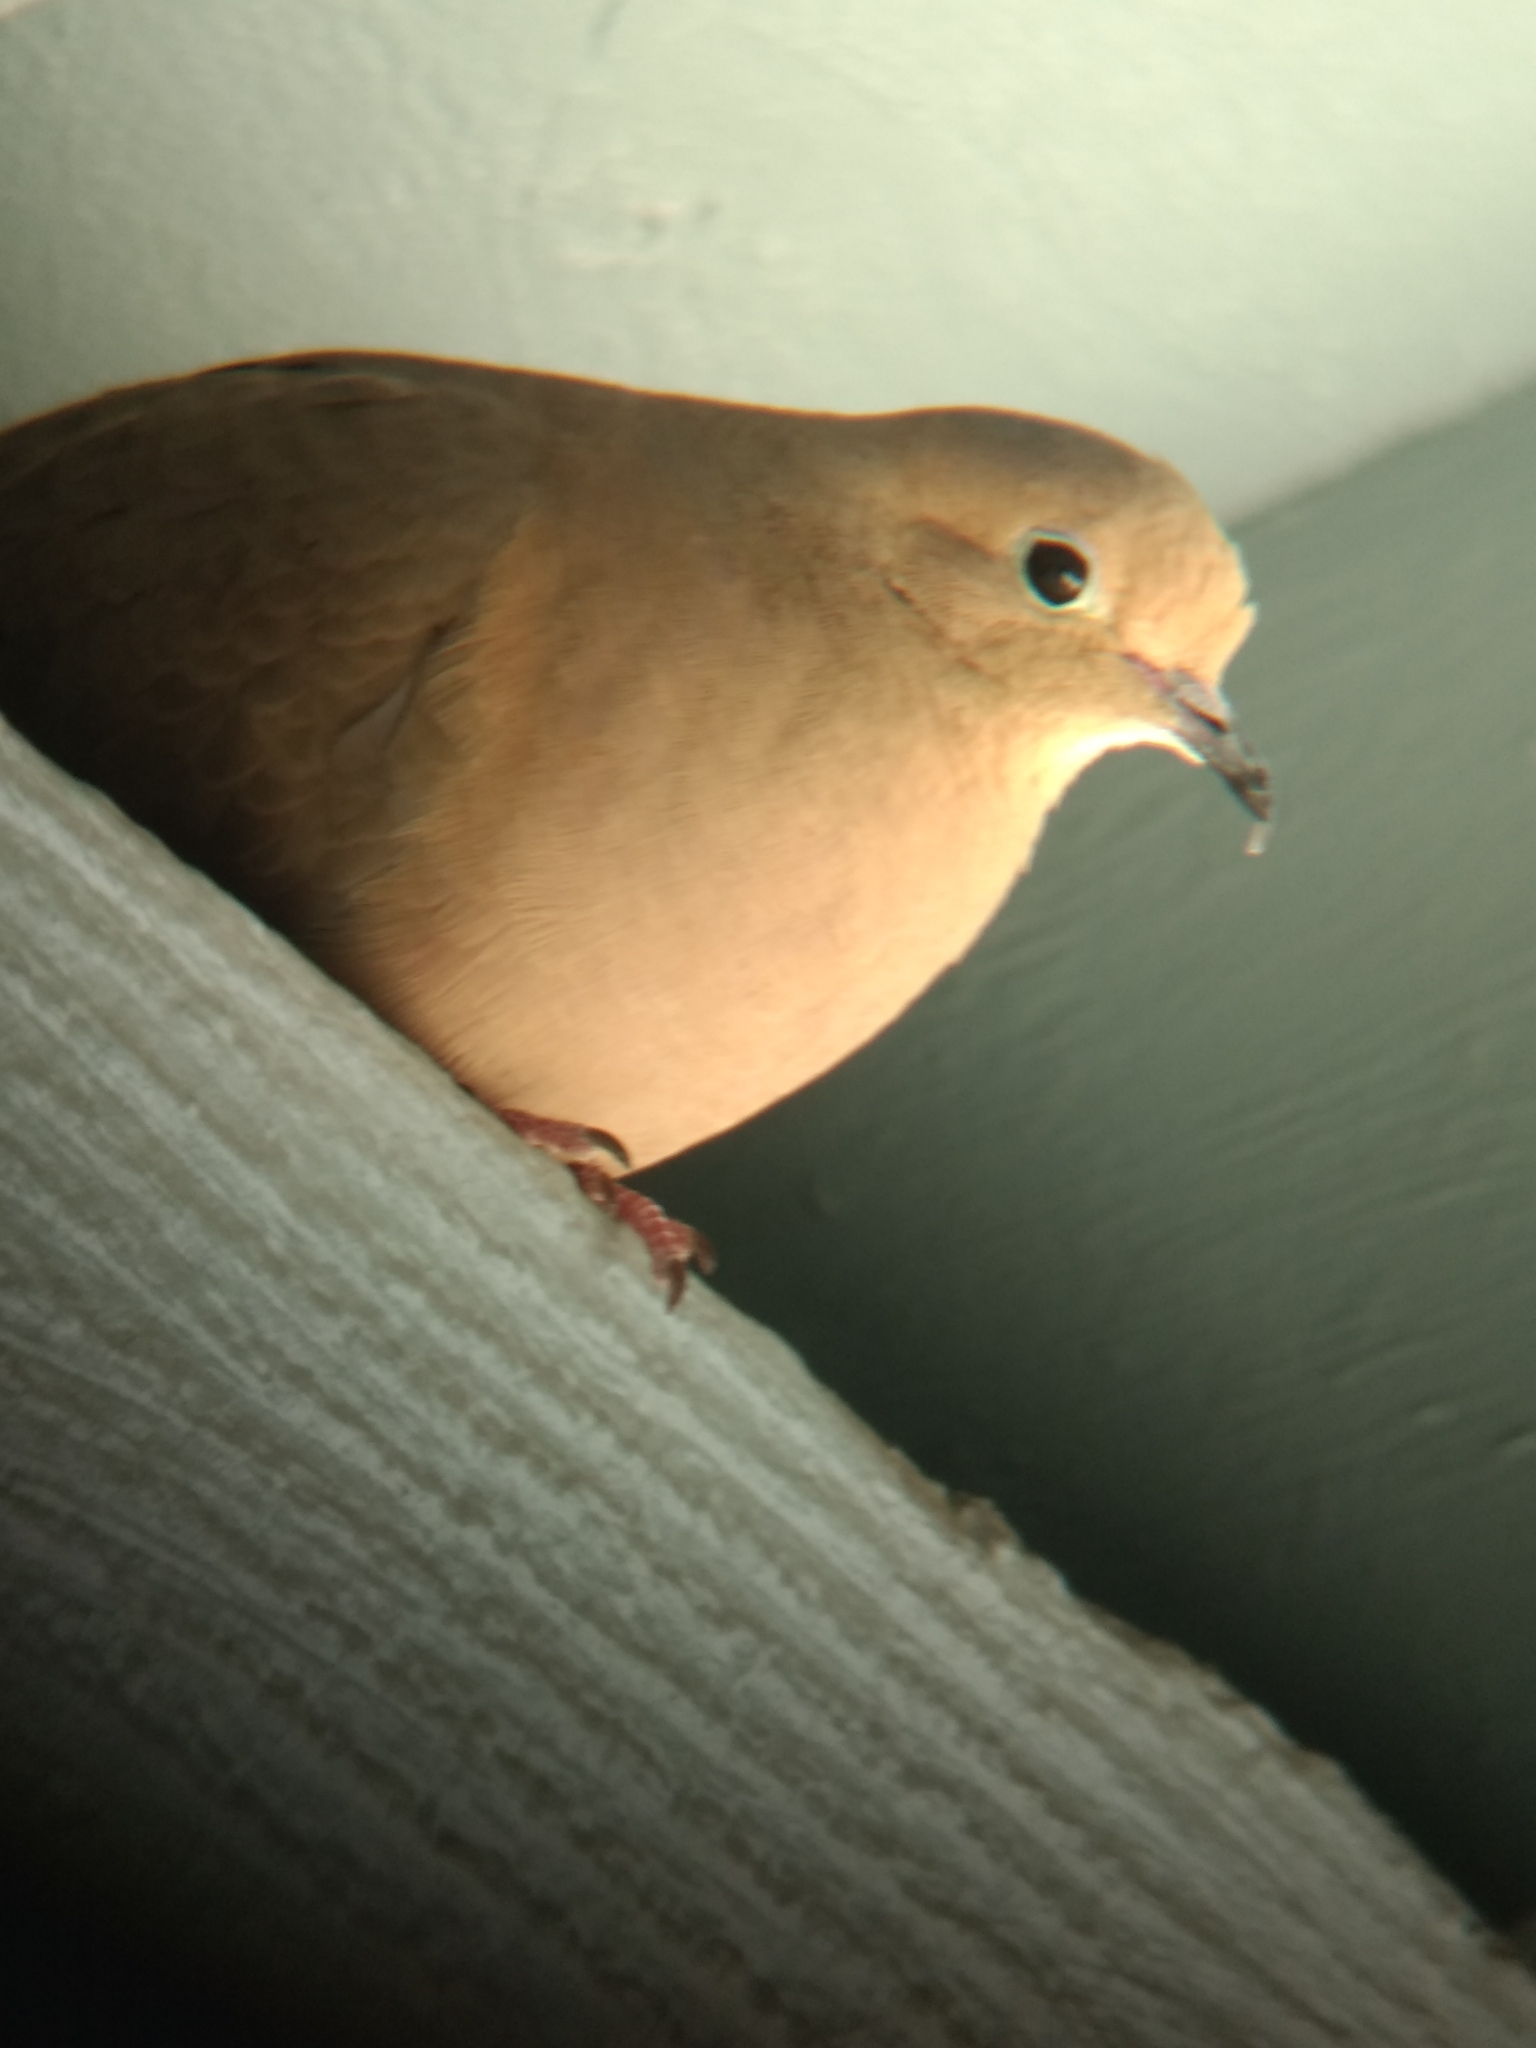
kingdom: Animalia
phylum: Chordata
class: Aves
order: Columbiformes
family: Columbidae
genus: Zenaida
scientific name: Zenaida macroura
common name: Mourning dove
